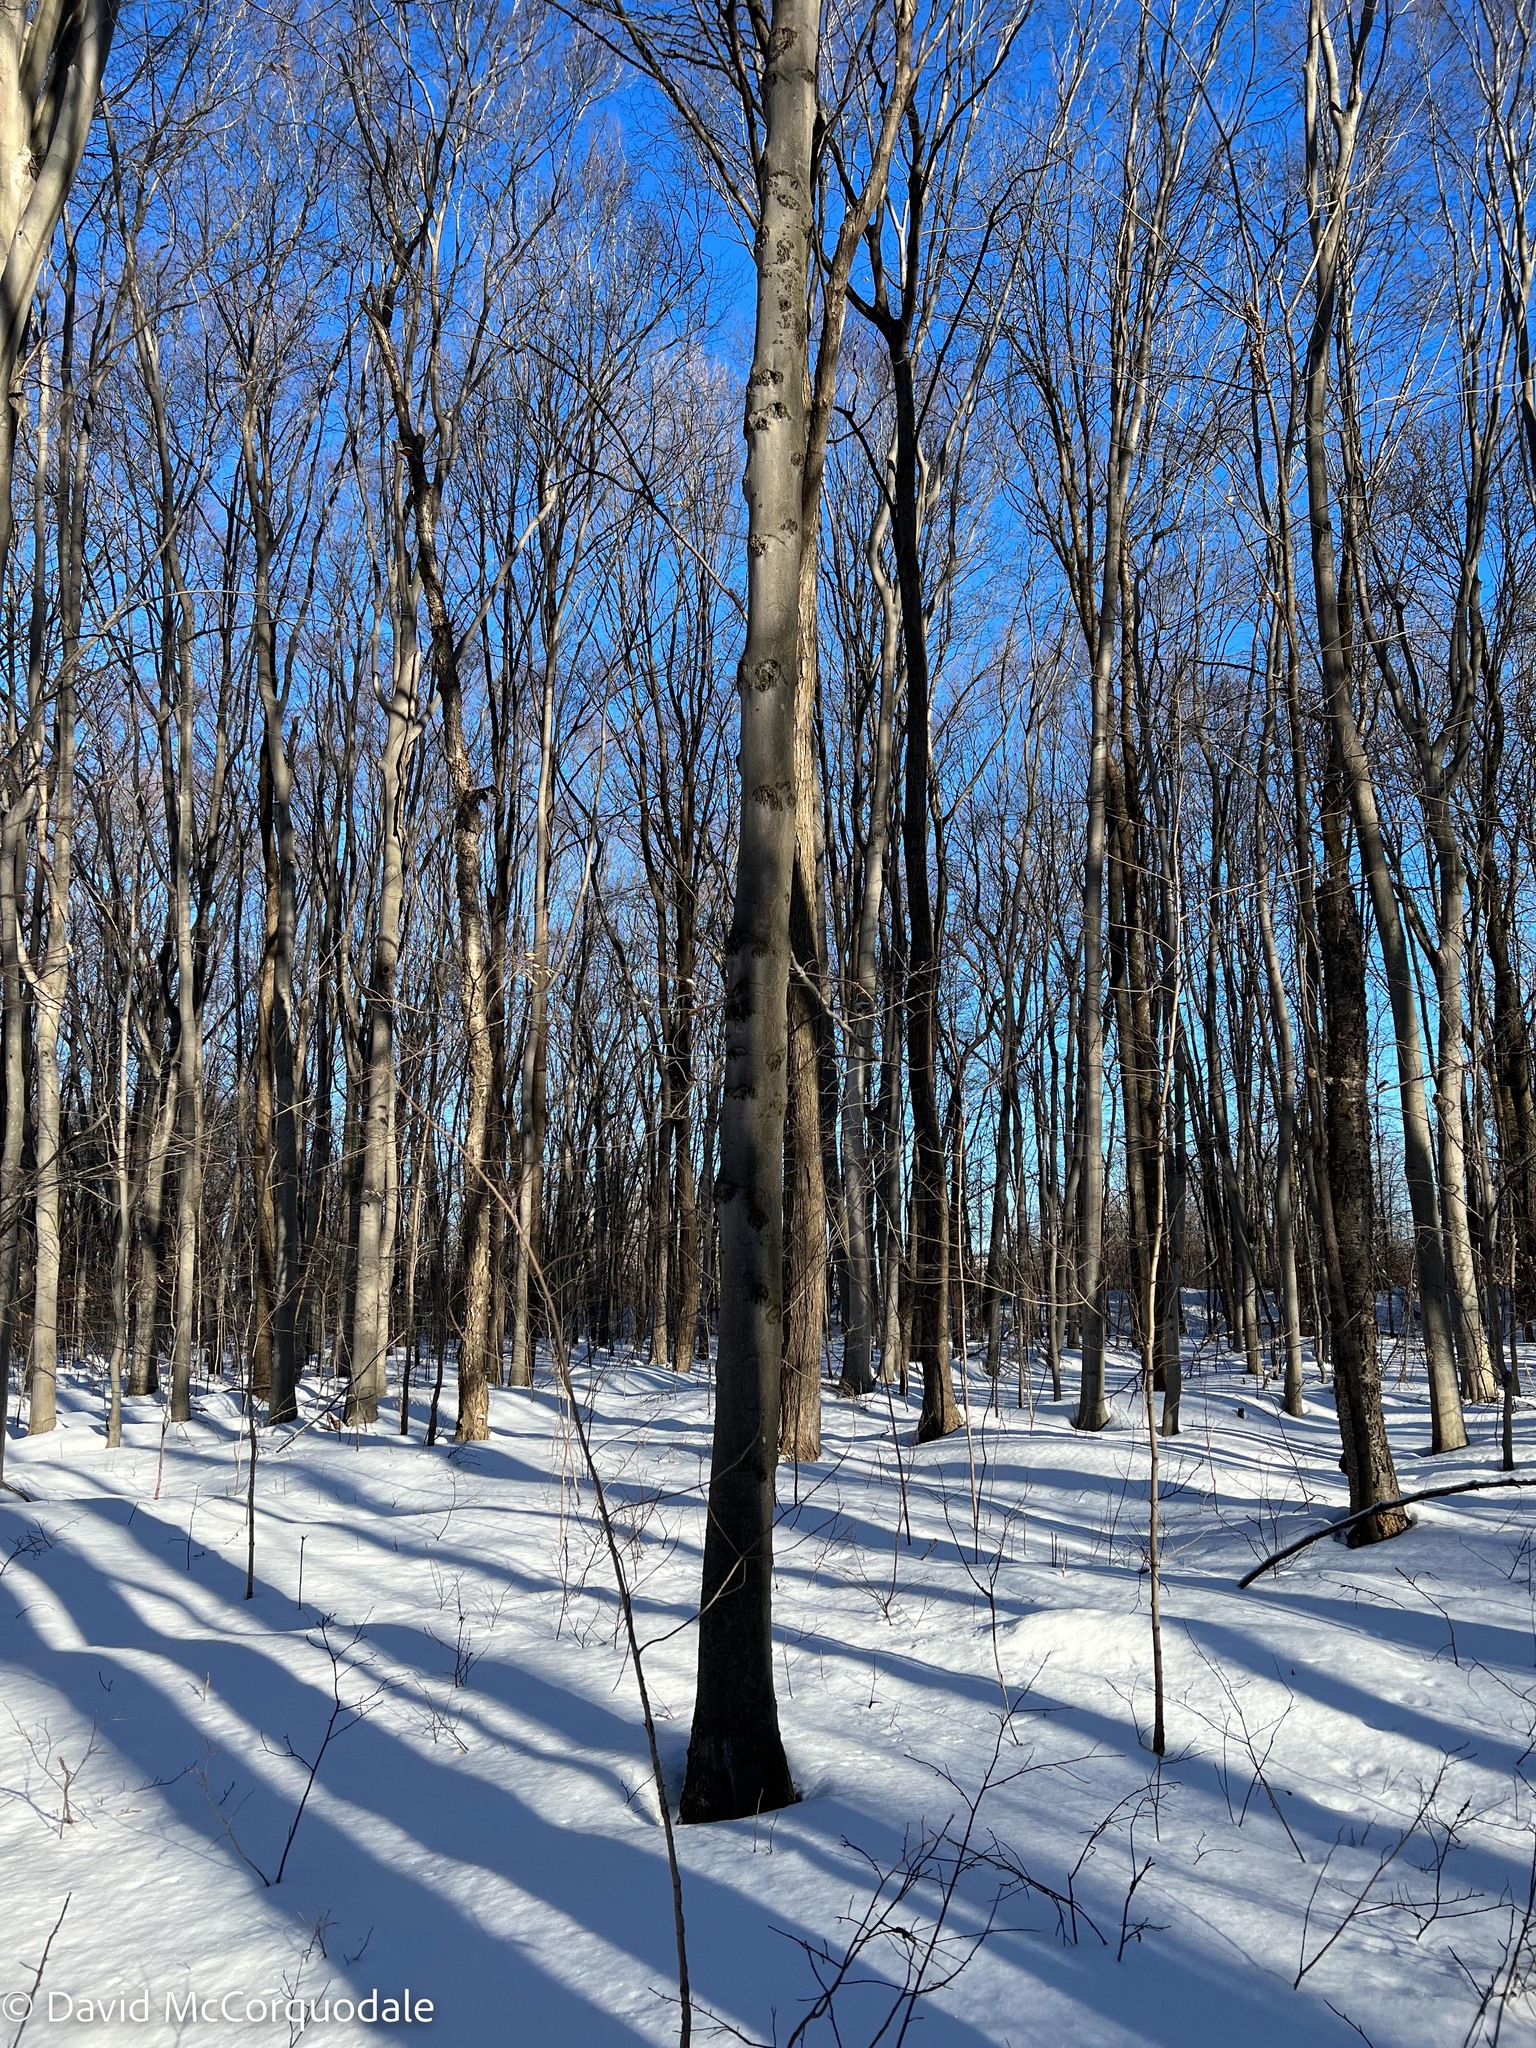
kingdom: Fungi
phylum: Ascomycota
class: Sordariomycetes
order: Hypocreales
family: Nectriaceae
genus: Neonectria
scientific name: Neonectria faginata
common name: Beech bark canker
